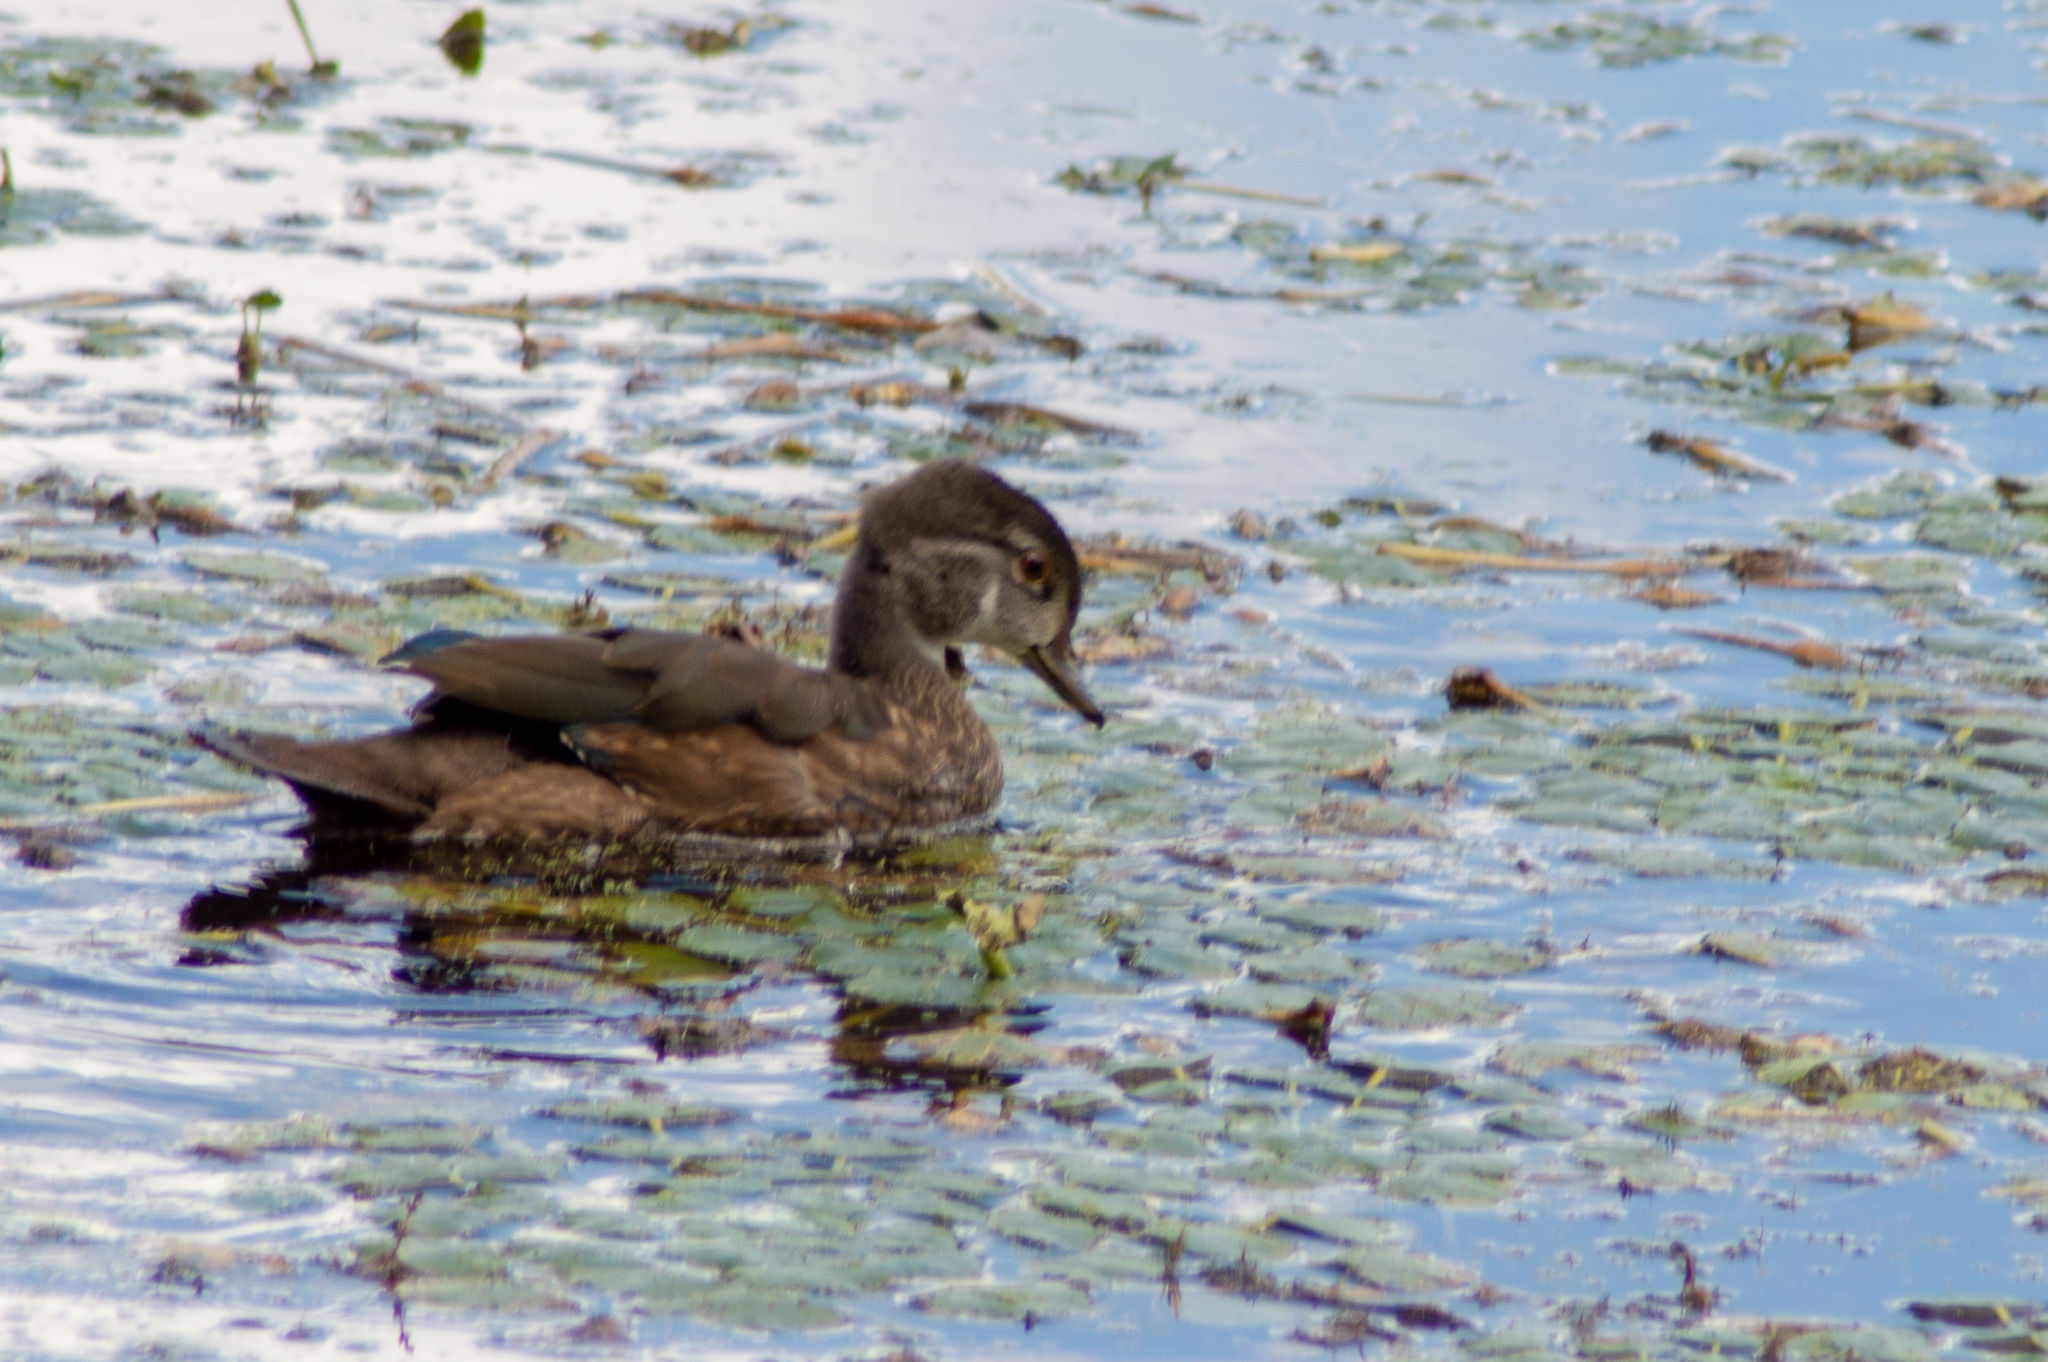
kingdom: Animalia
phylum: Chordata
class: Aves
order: Anseriformes
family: Anatidae
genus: Aix
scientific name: Aix sponsa
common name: Wood duck
